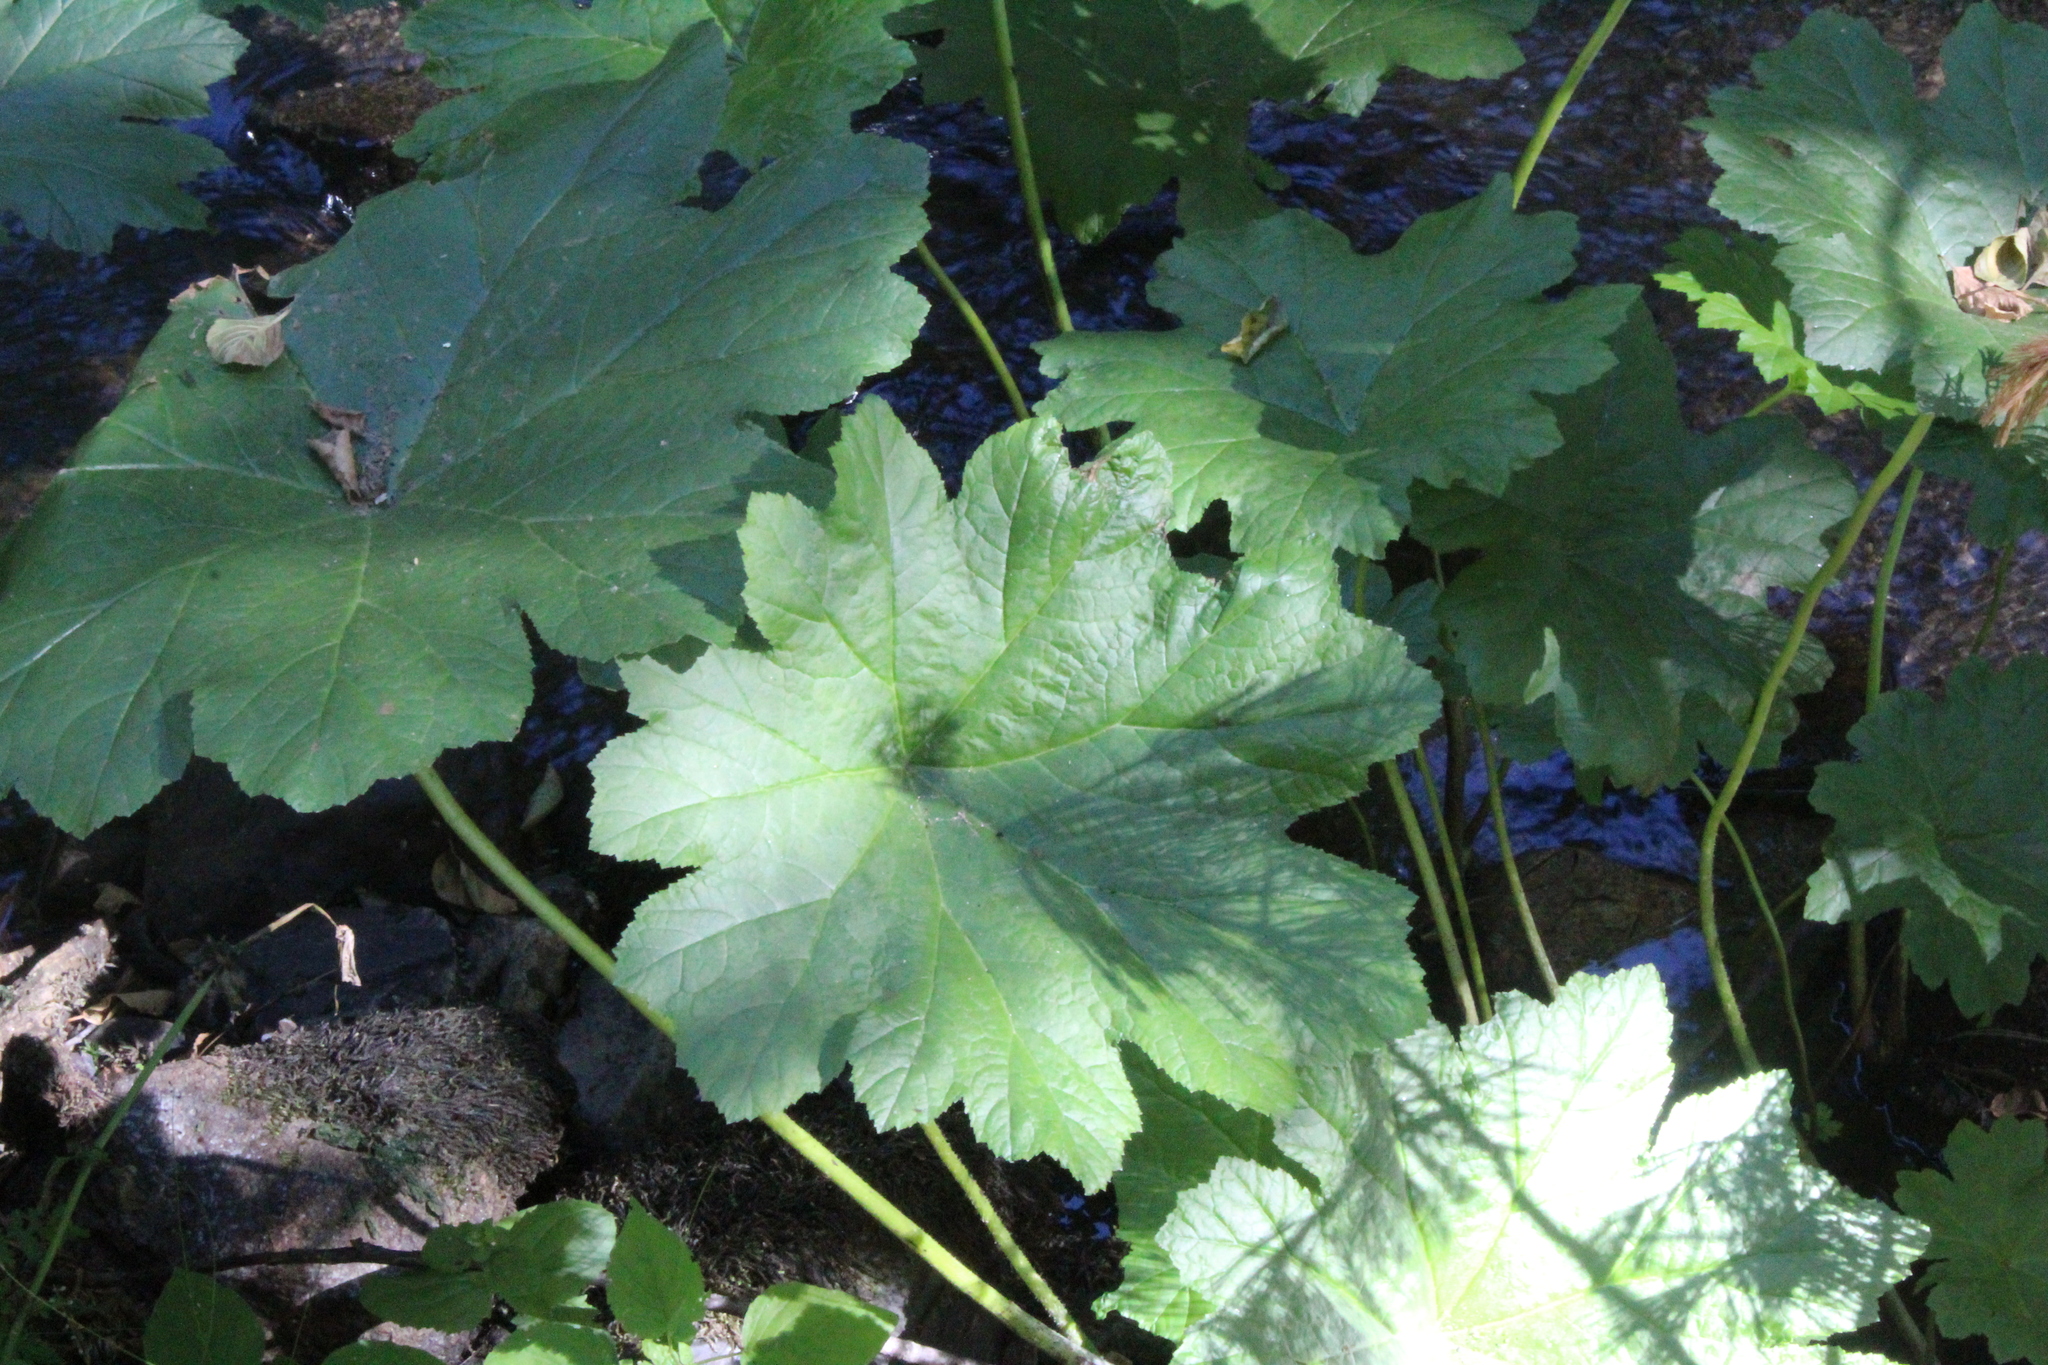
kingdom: Plantae
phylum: Tracheophyta
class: Magnoliopsida
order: Saxifragales
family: Saxifragaceae
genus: Darmera
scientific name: Darmera peltata
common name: Indian-rhubarb
